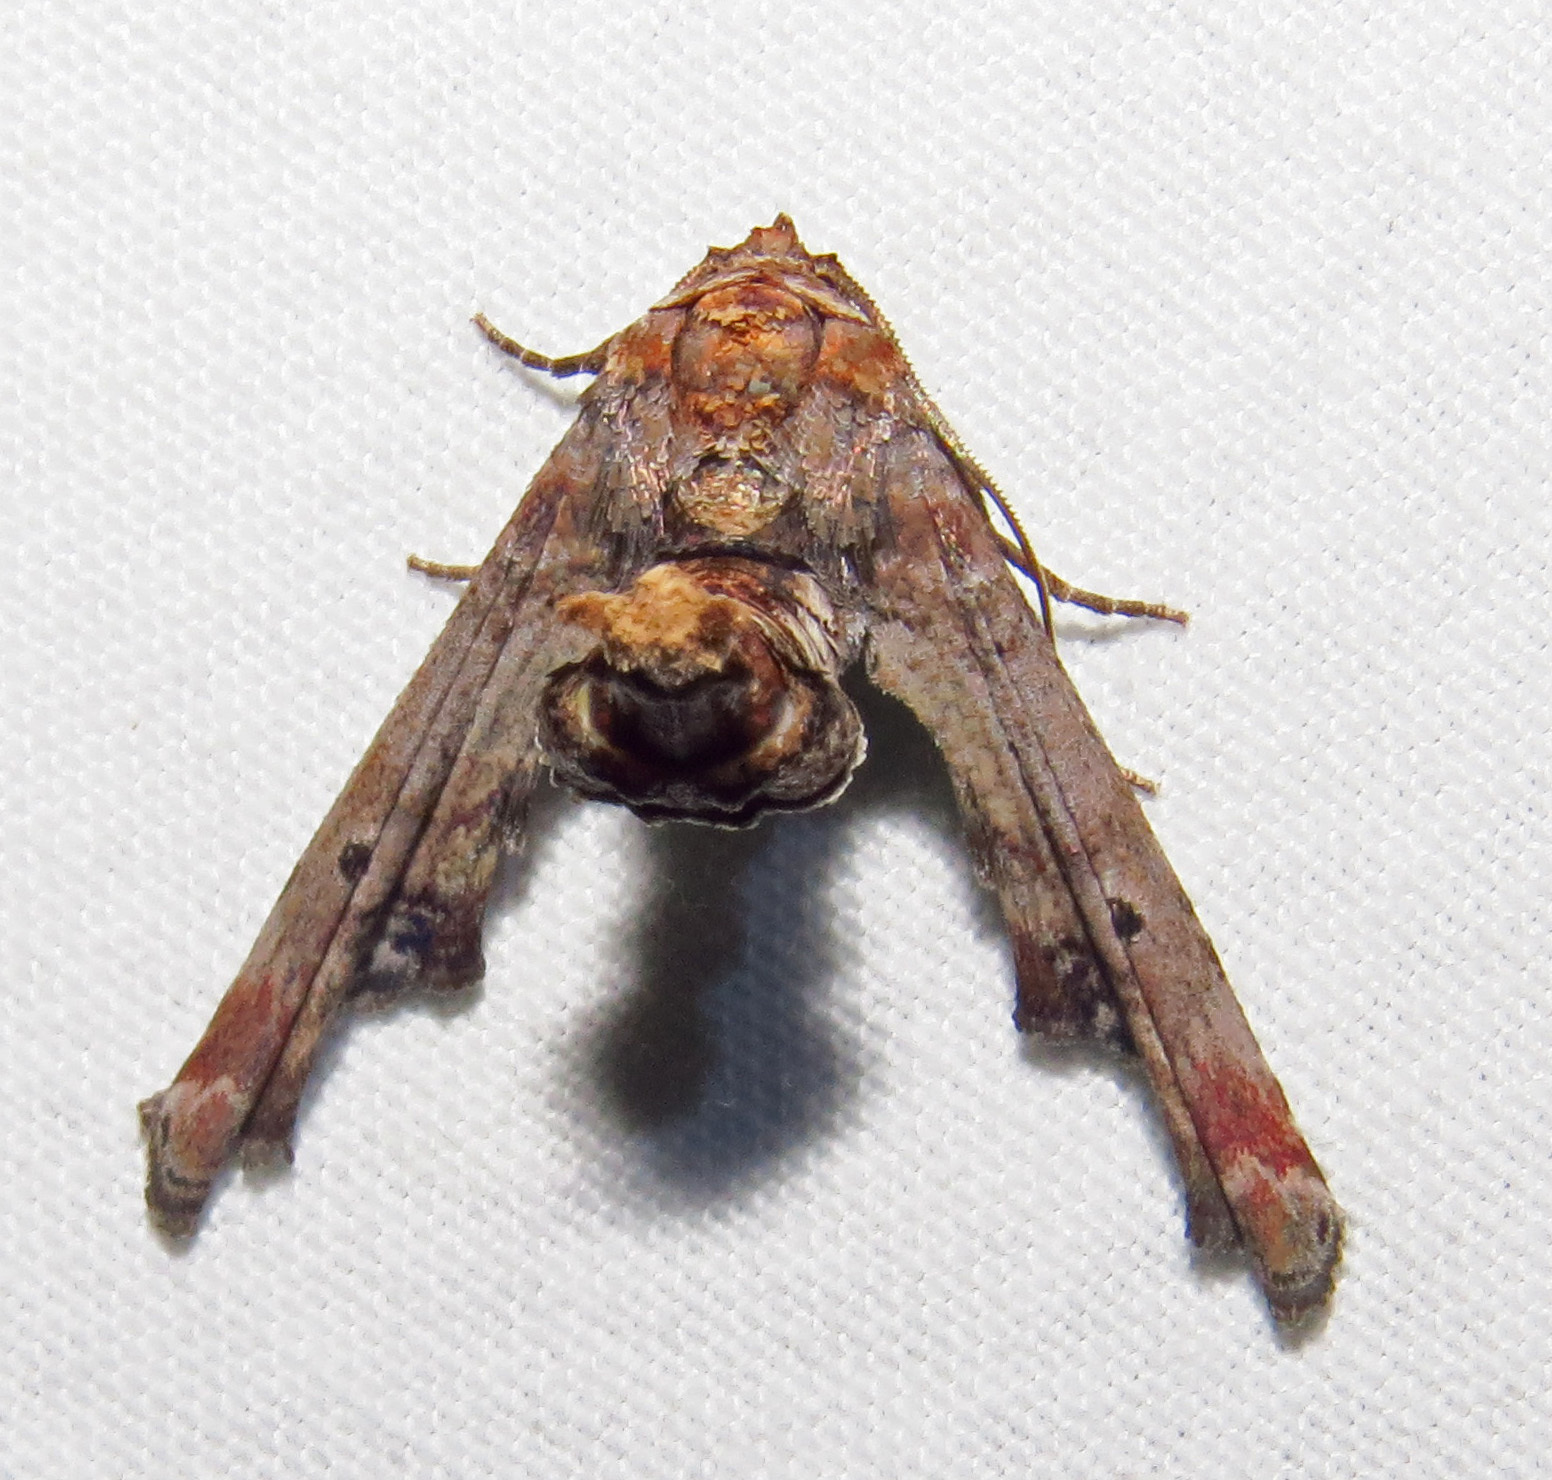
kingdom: Animalia
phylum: Arthropoda
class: Insecta
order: Lepidoptera
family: Euteliidae
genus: Marathyssa
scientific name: Marathyssa inficita
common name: Dark marathyssa moth
